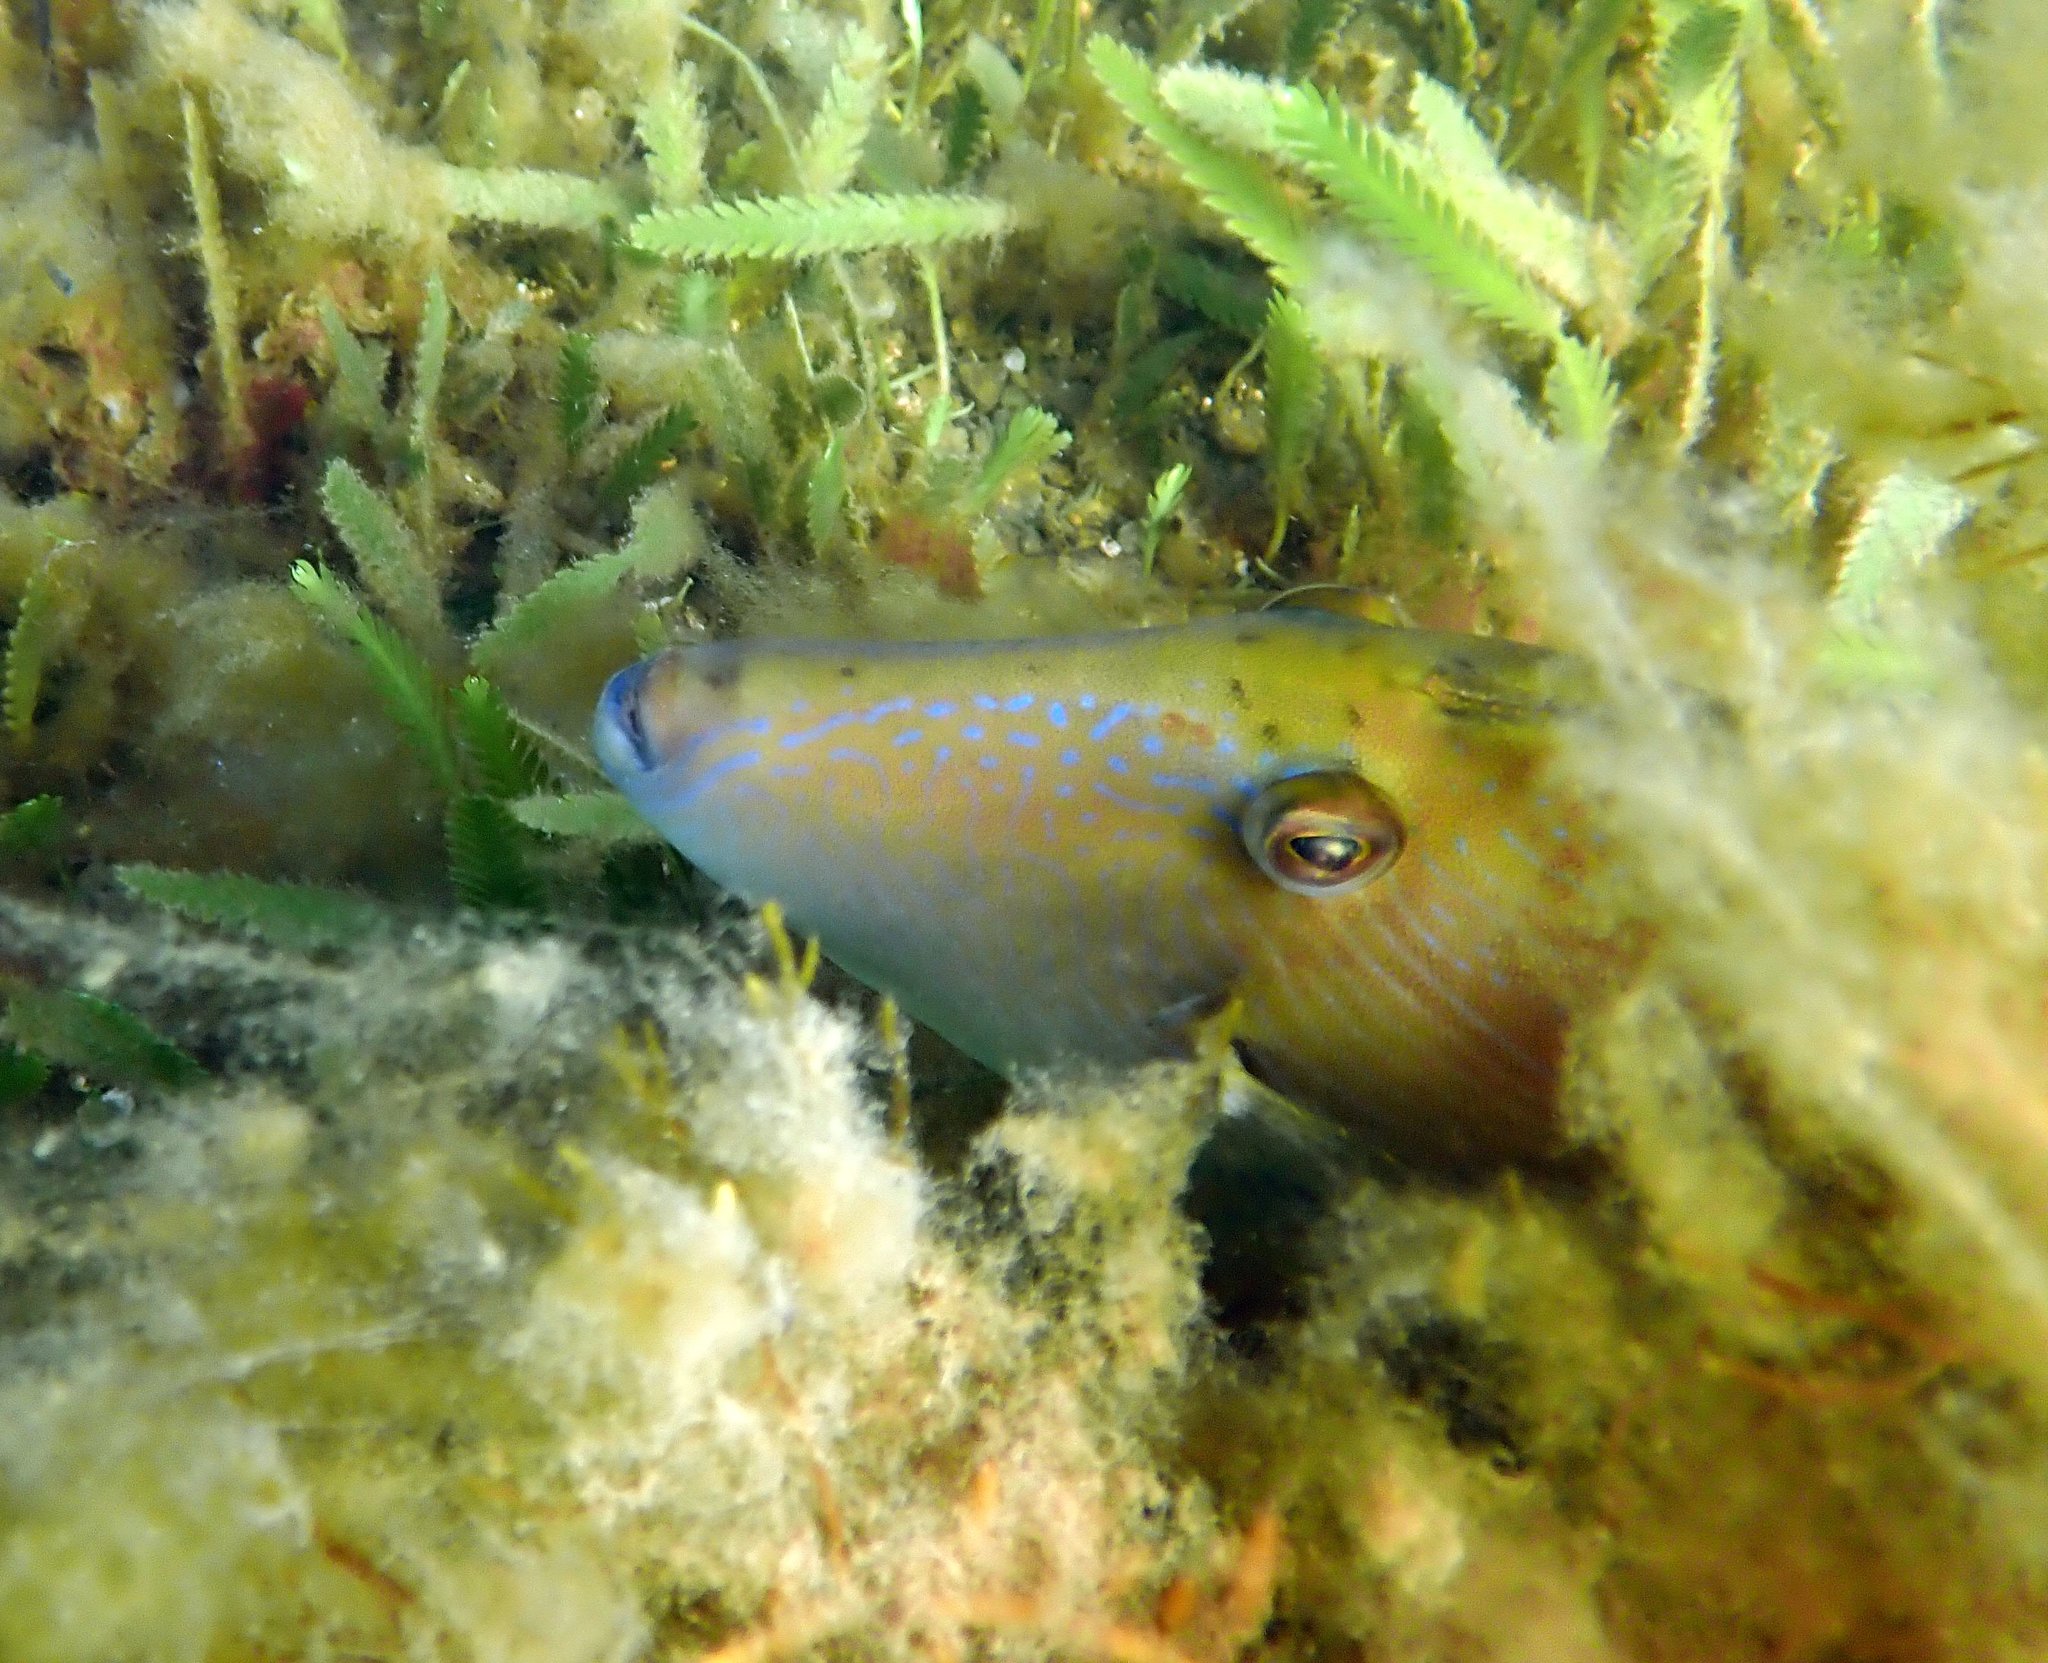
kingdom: Animalia
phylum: Chordata
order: Tetraodontiformes
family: Monacanthidae
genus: Acanthaluteres
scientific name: Acanthaluteres vittiger
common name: Brown leatherjacket
